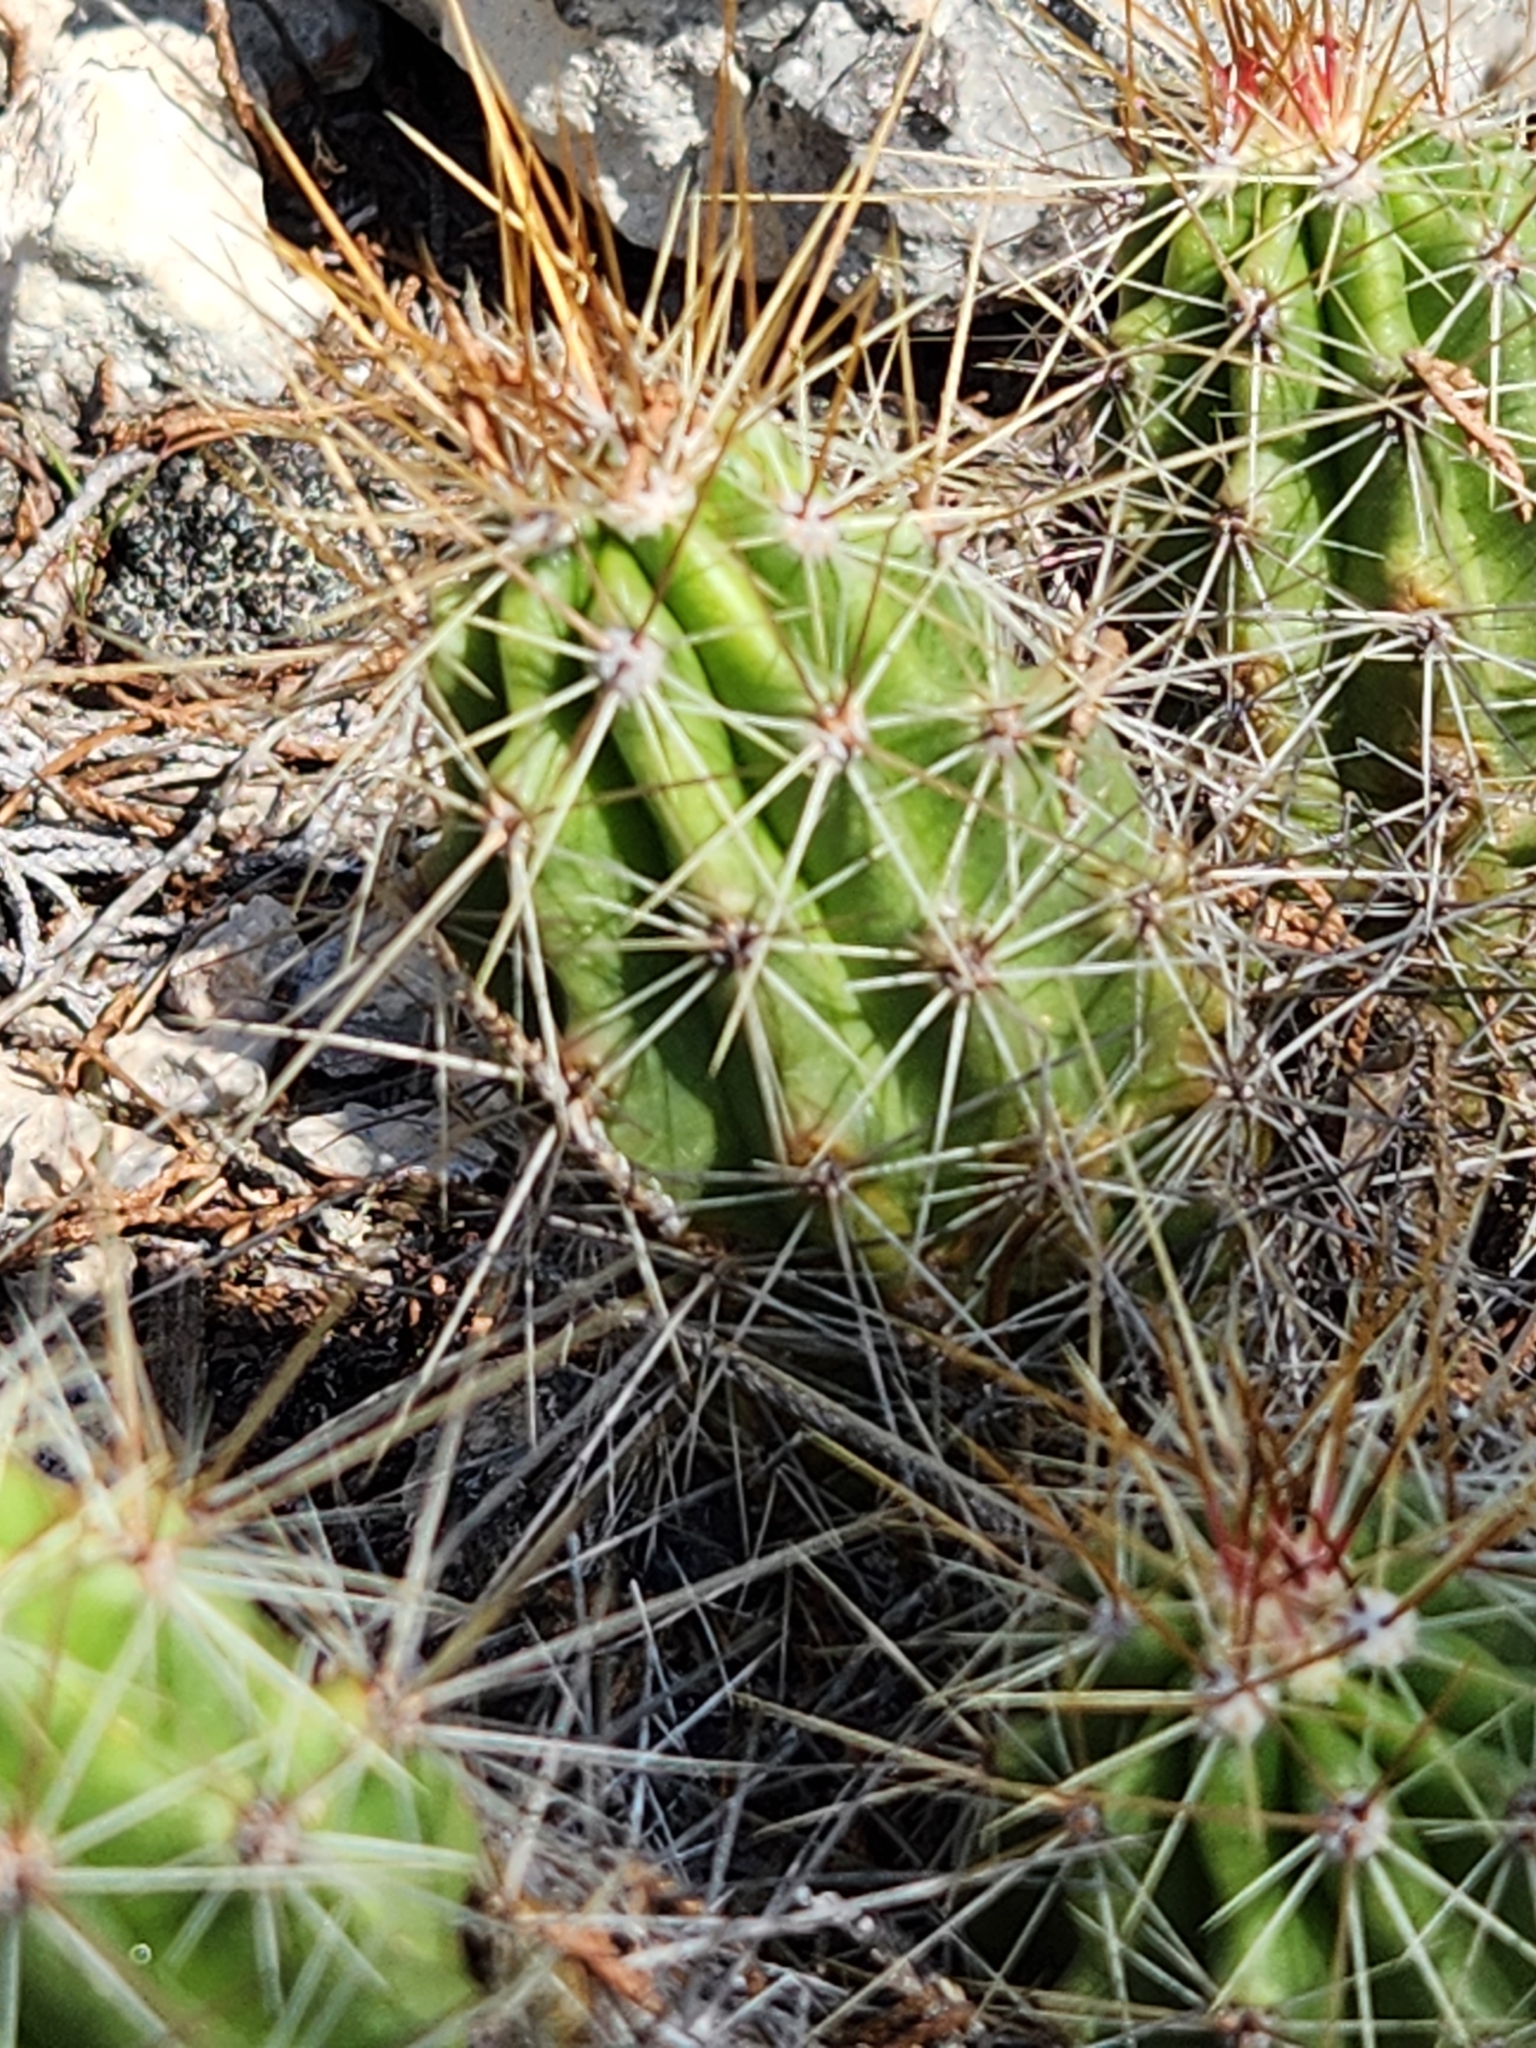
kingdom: Plantae
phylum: Tracheophyta
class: Magnoliopsida
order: Caryophyllales
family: Cactaceae
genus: Echinocereus
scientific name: Echinocereus enneacanthus
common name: Pitaya
